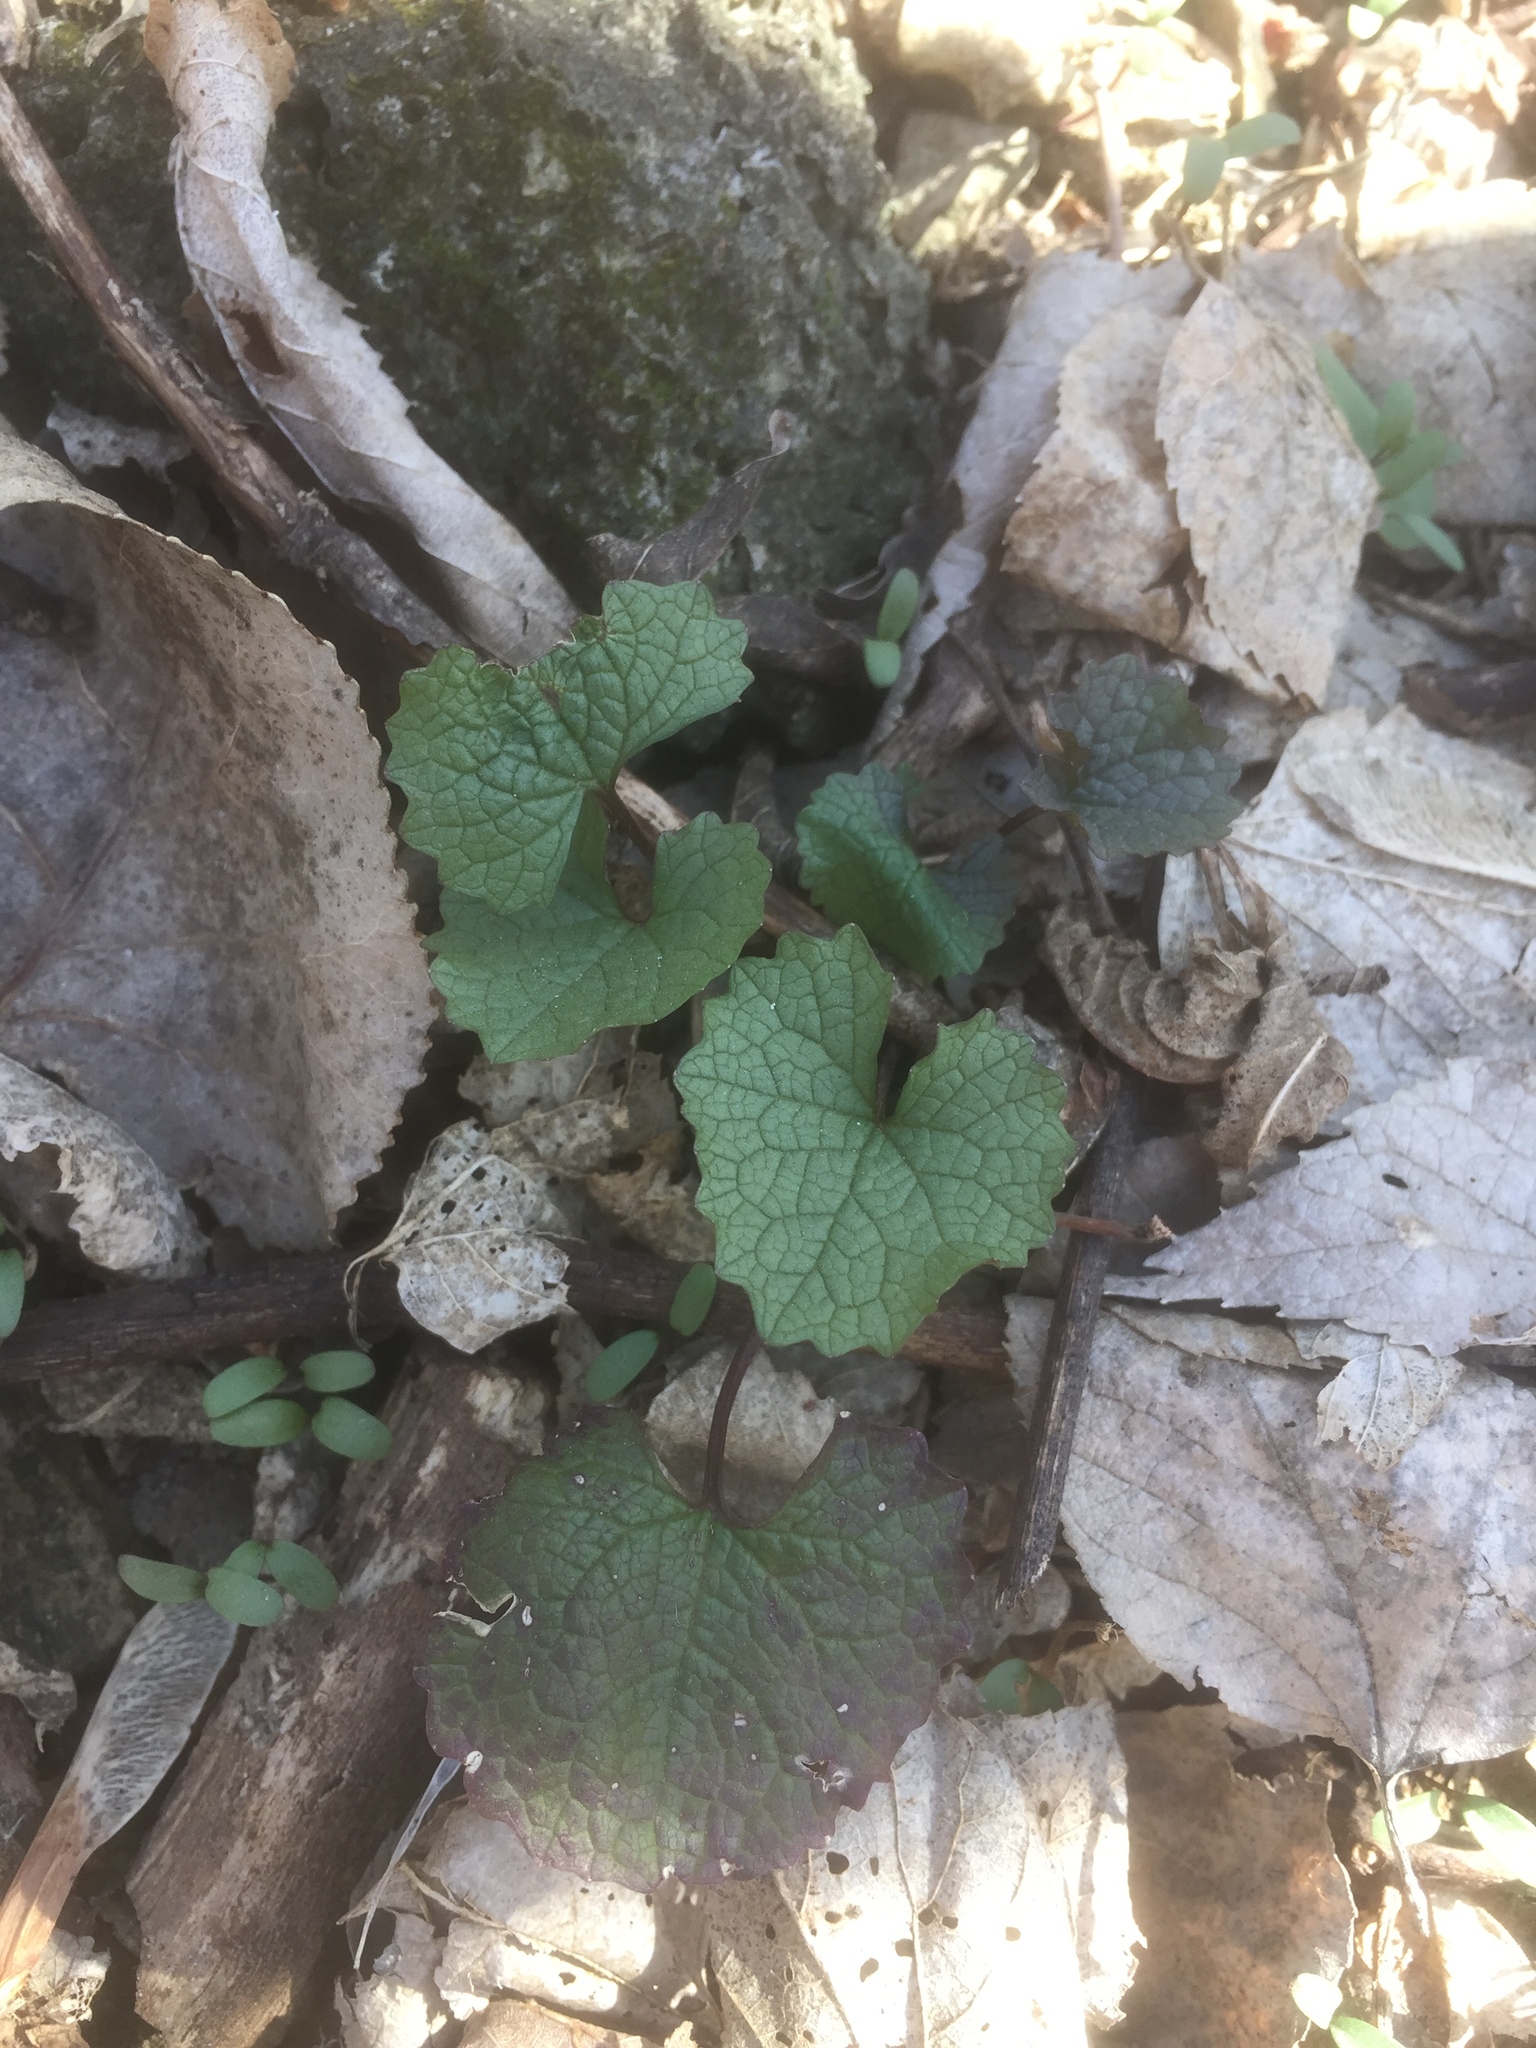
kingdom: Plantae
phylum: Tracheophyta
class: Magnoliopsida
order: Brassicales
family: Brassicaceae
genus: Alliaria
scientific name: Alliaria petiolata
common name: Garlic mustard
